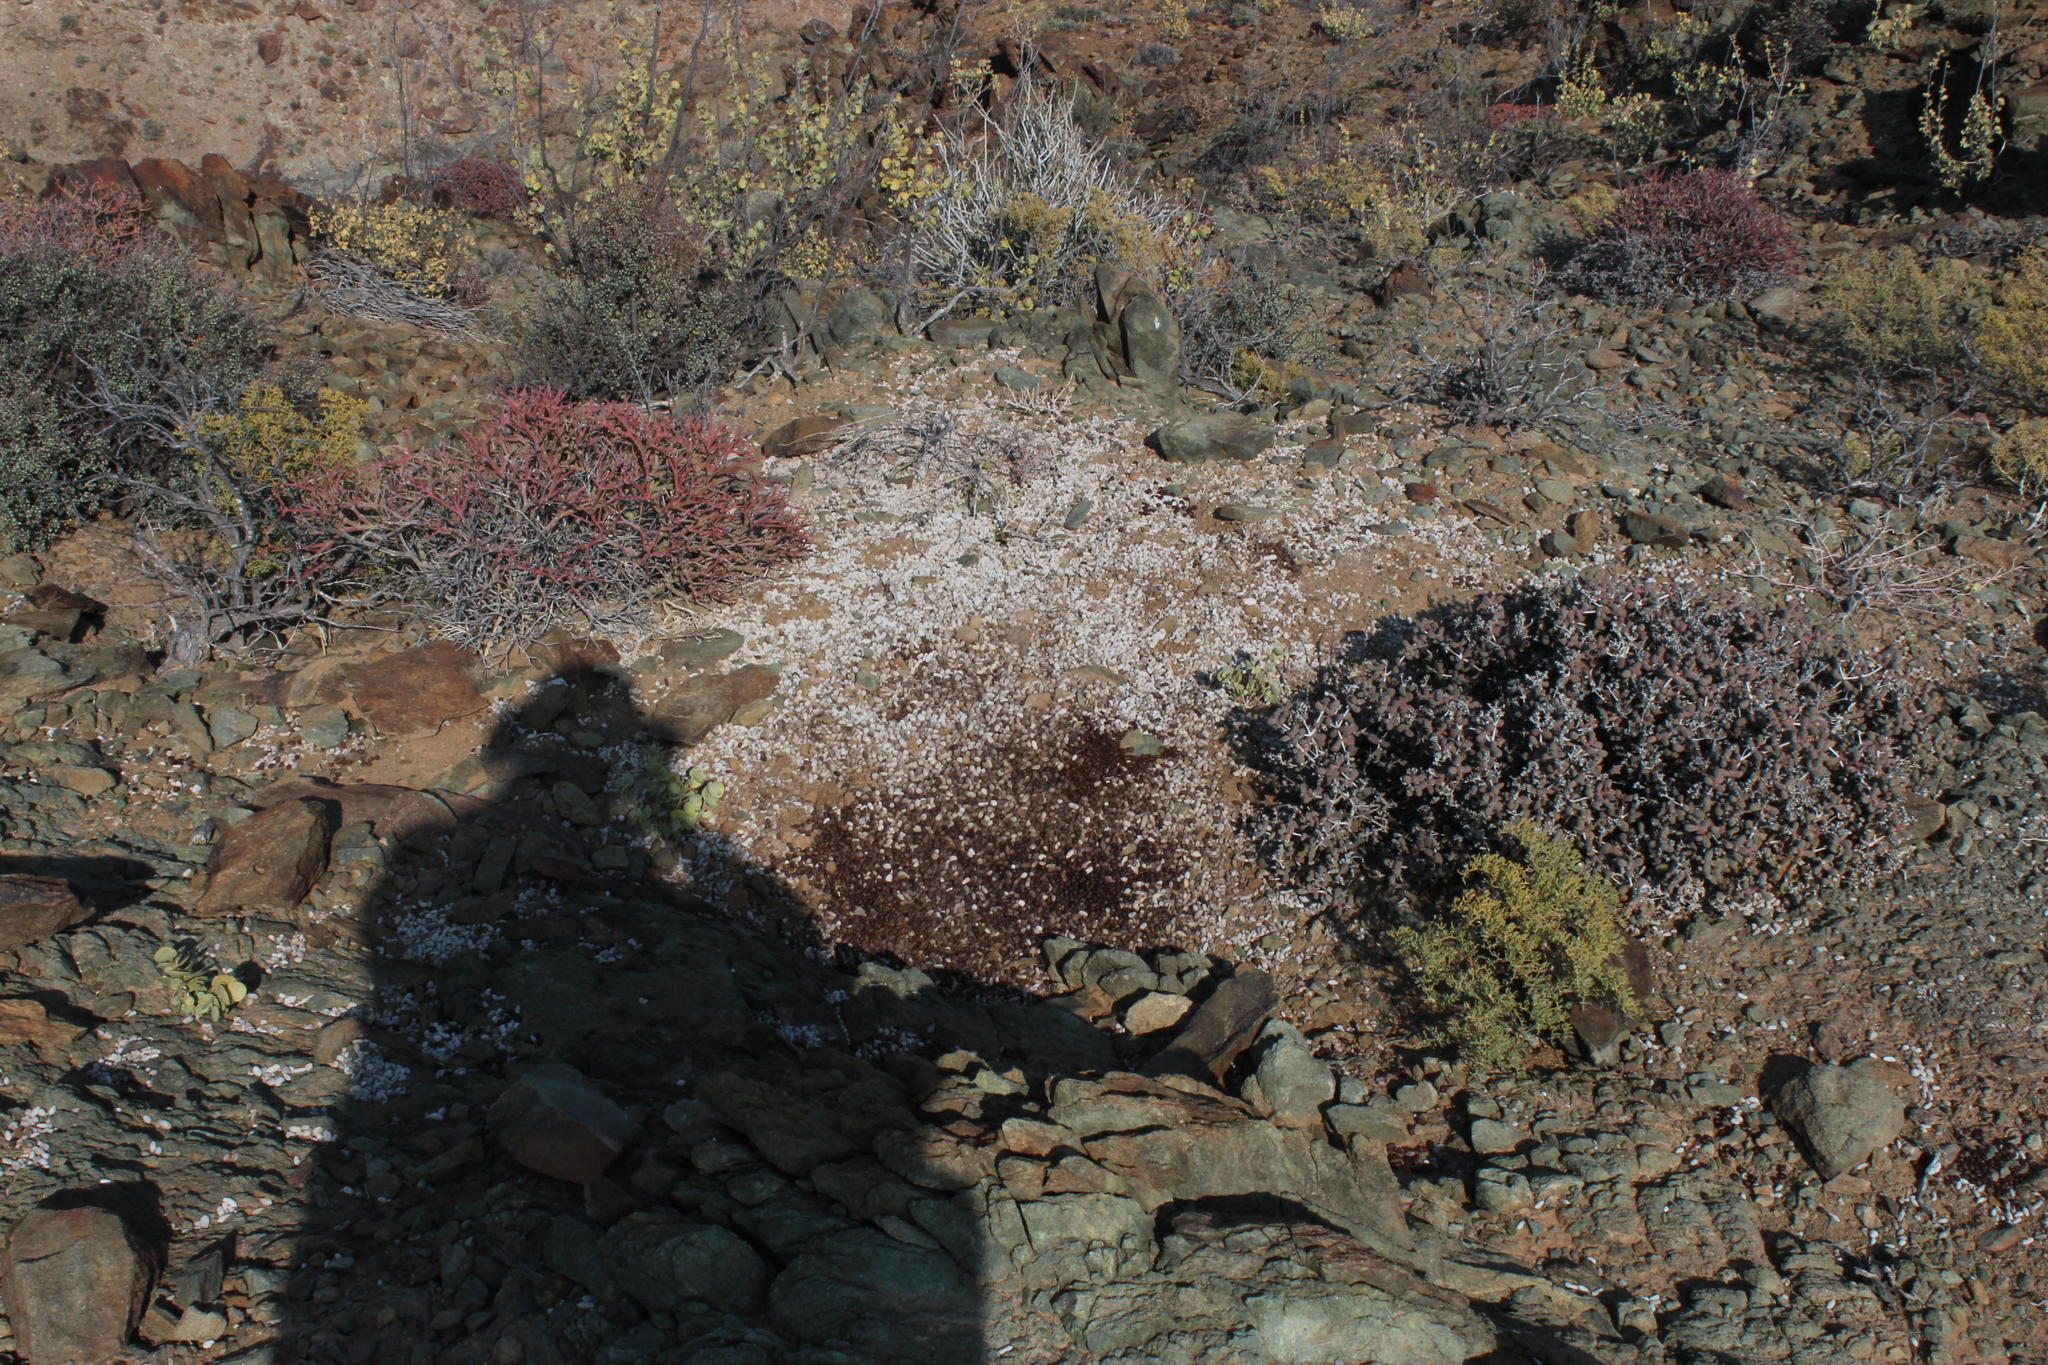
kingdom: Animalia
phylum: Chordata
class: Mammalia
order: Lagomorpha
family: Leporidae
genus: Pronolagus
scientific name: Pronolagus rupestris
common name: Smith's red rock hare
